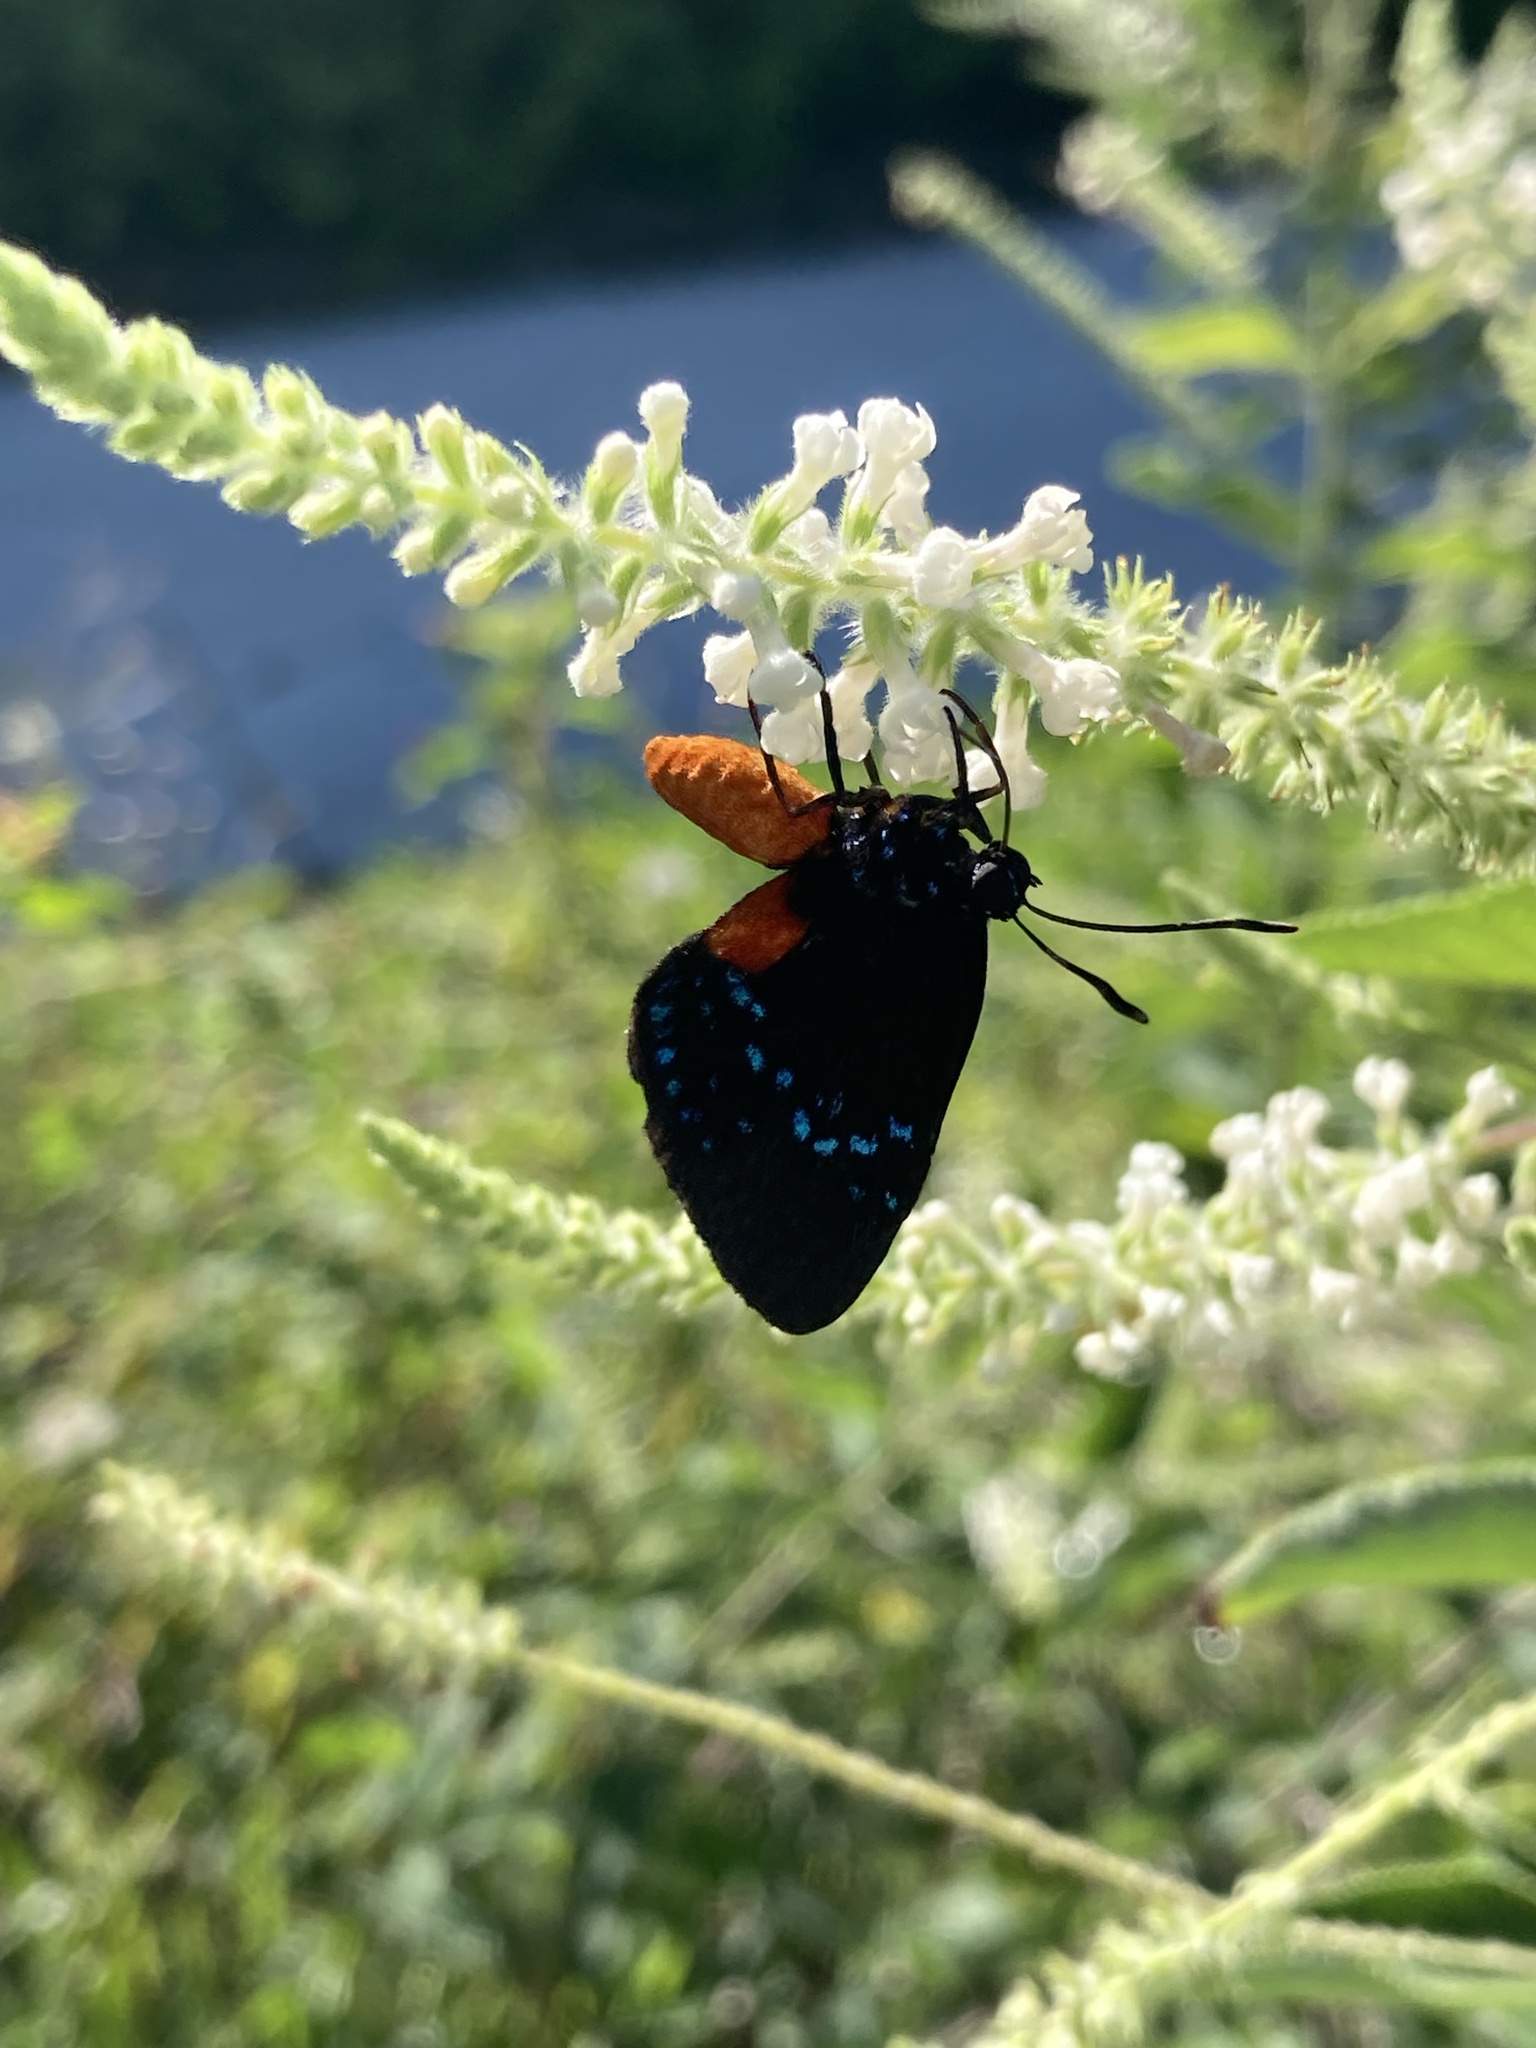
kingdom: Animalia
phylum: Arthropoda
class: Insecta
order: Lepidoptera
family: Lycaenidae
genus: Eumaeus
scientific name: Eumaeus atala
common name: Atala
